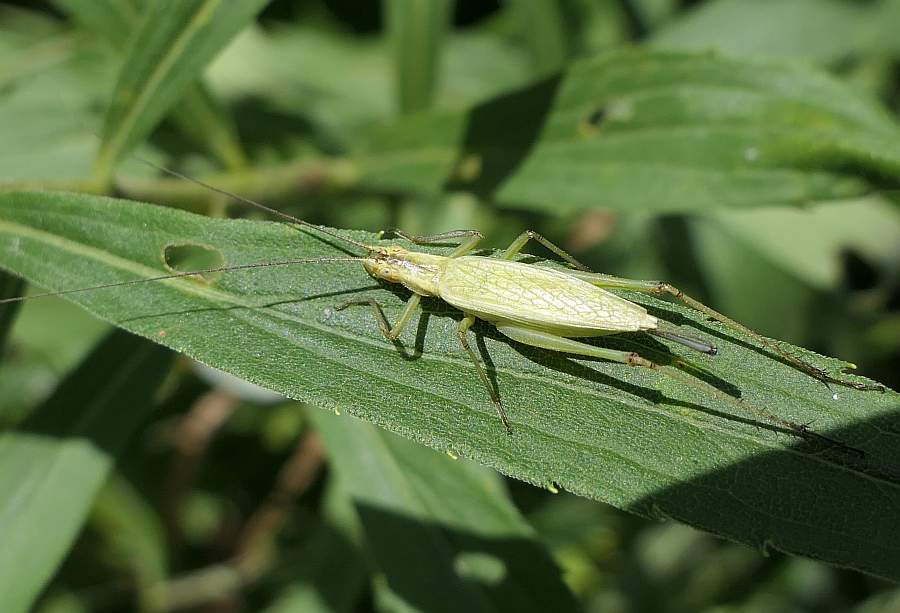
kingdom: Animalia
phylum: Arthropoda
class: Insecta
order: Orthoptera
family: Gryllidae
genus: Oecanthus
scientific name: Oecanthus nigricornis
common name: Black-horned tree cricket
